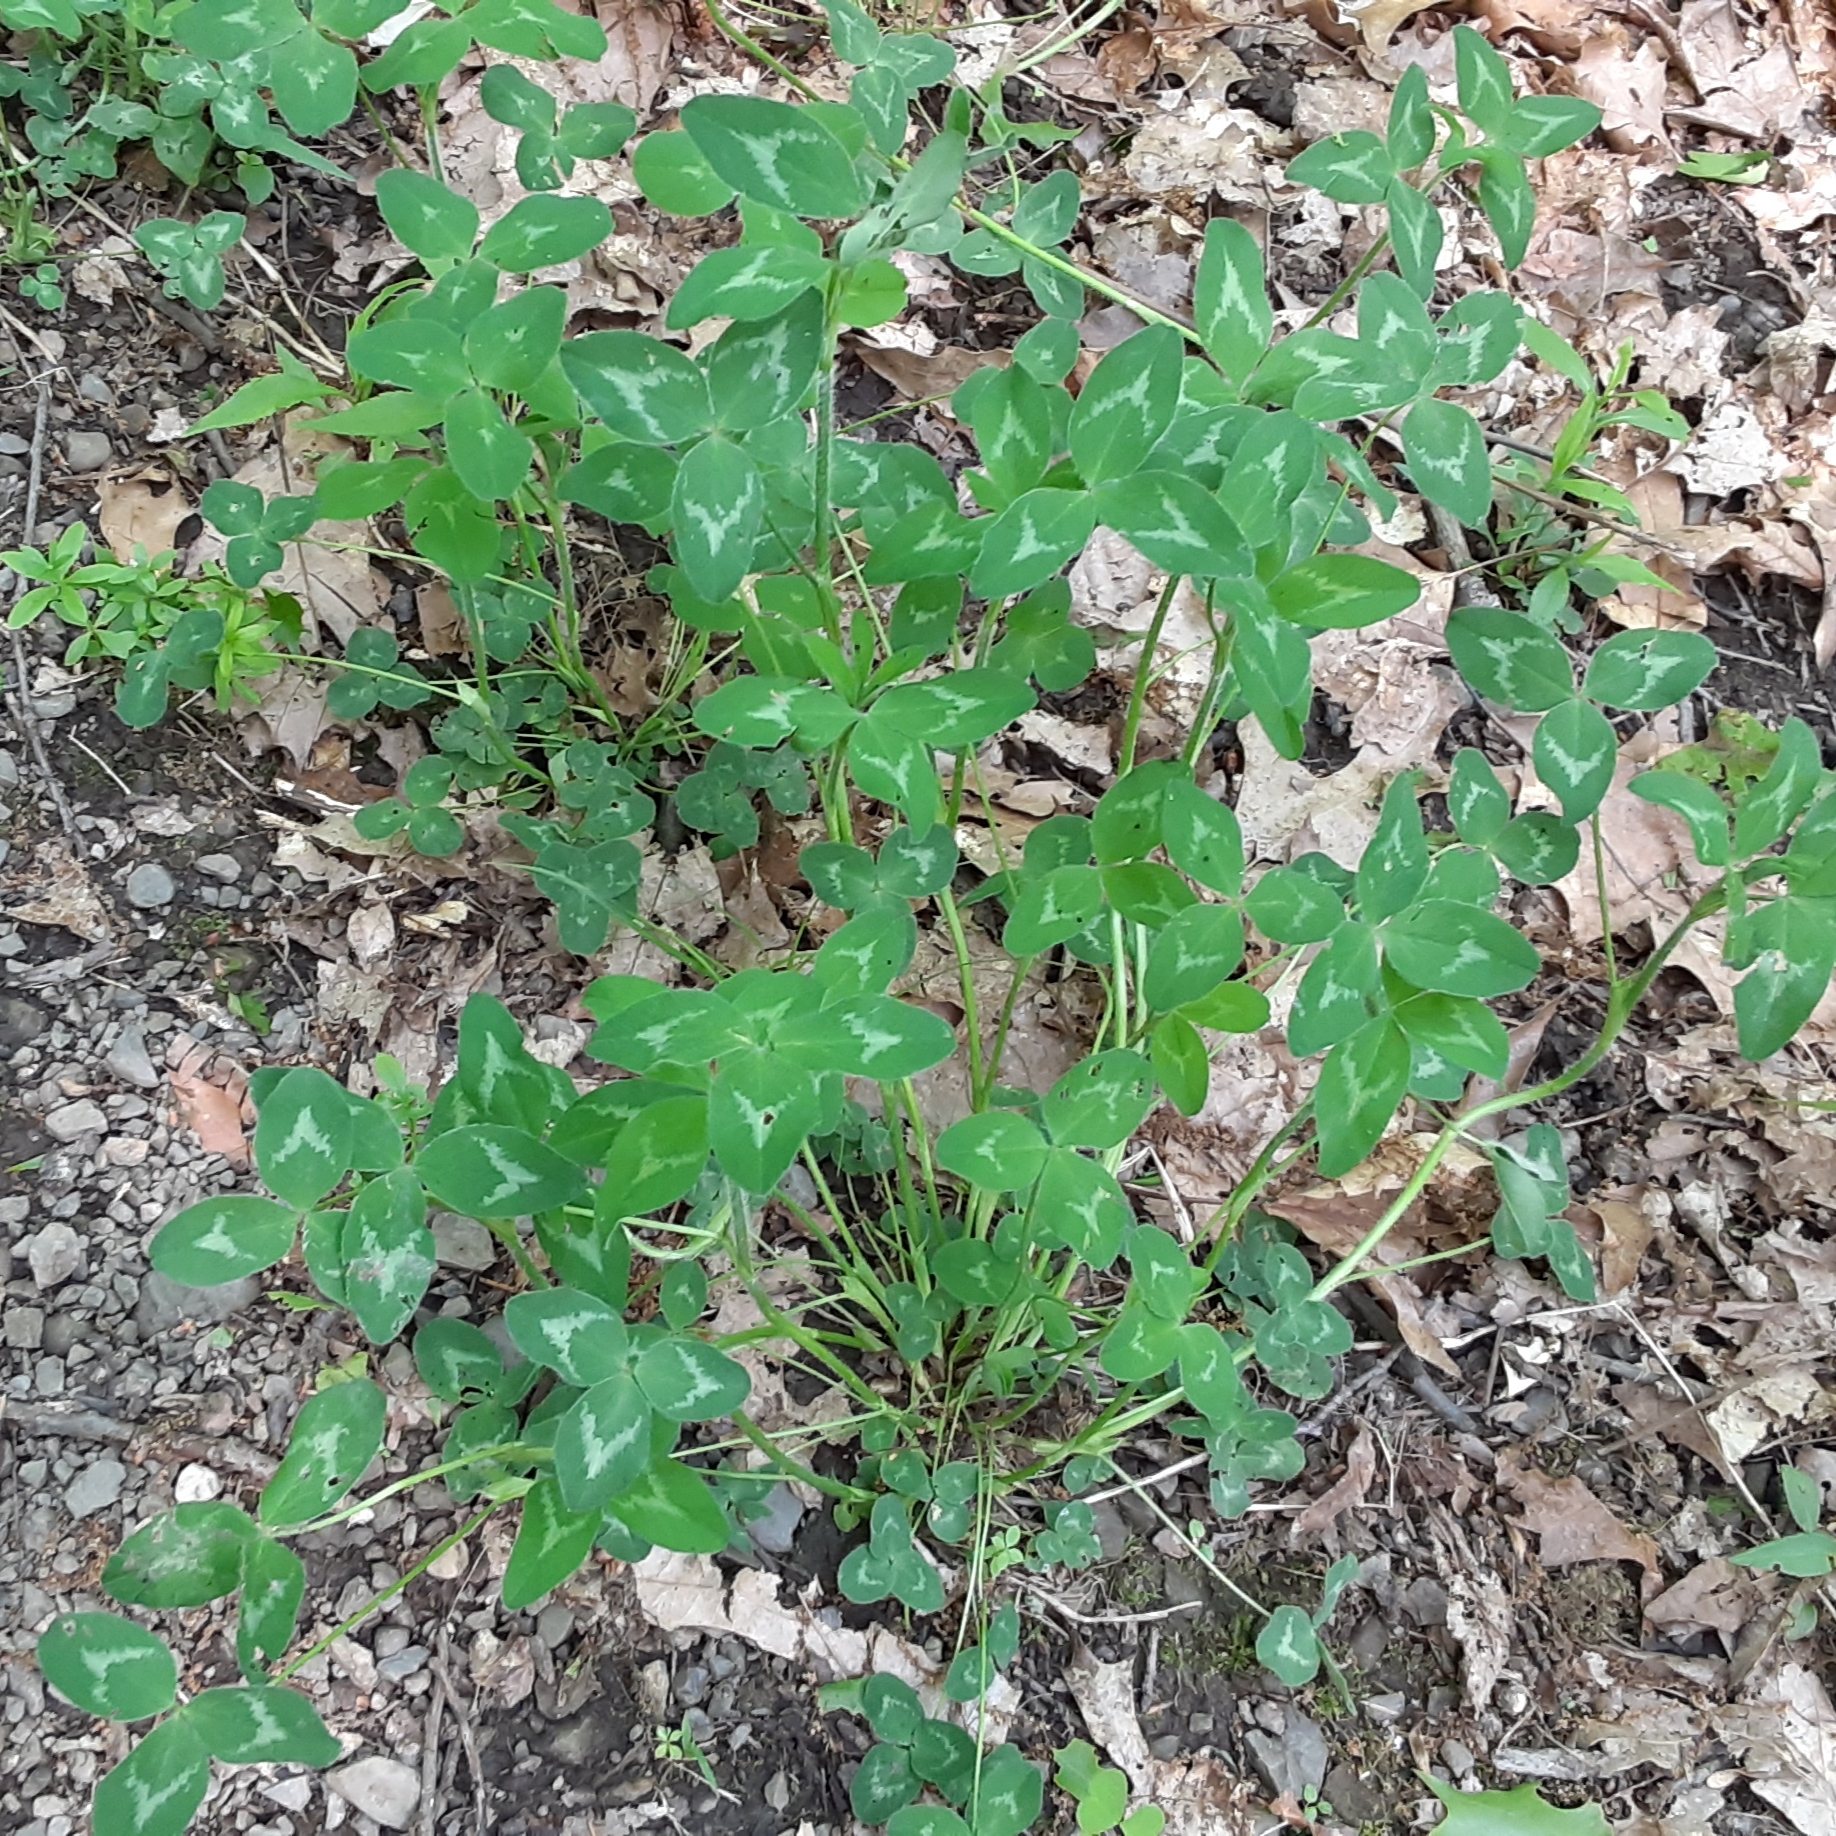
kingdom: Plantae
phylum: Tracheophyta
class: Magnoliopsida
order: Fabales
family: Fabaceae
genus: Trifolium
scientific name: Trifolium pratense
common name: Red clover
